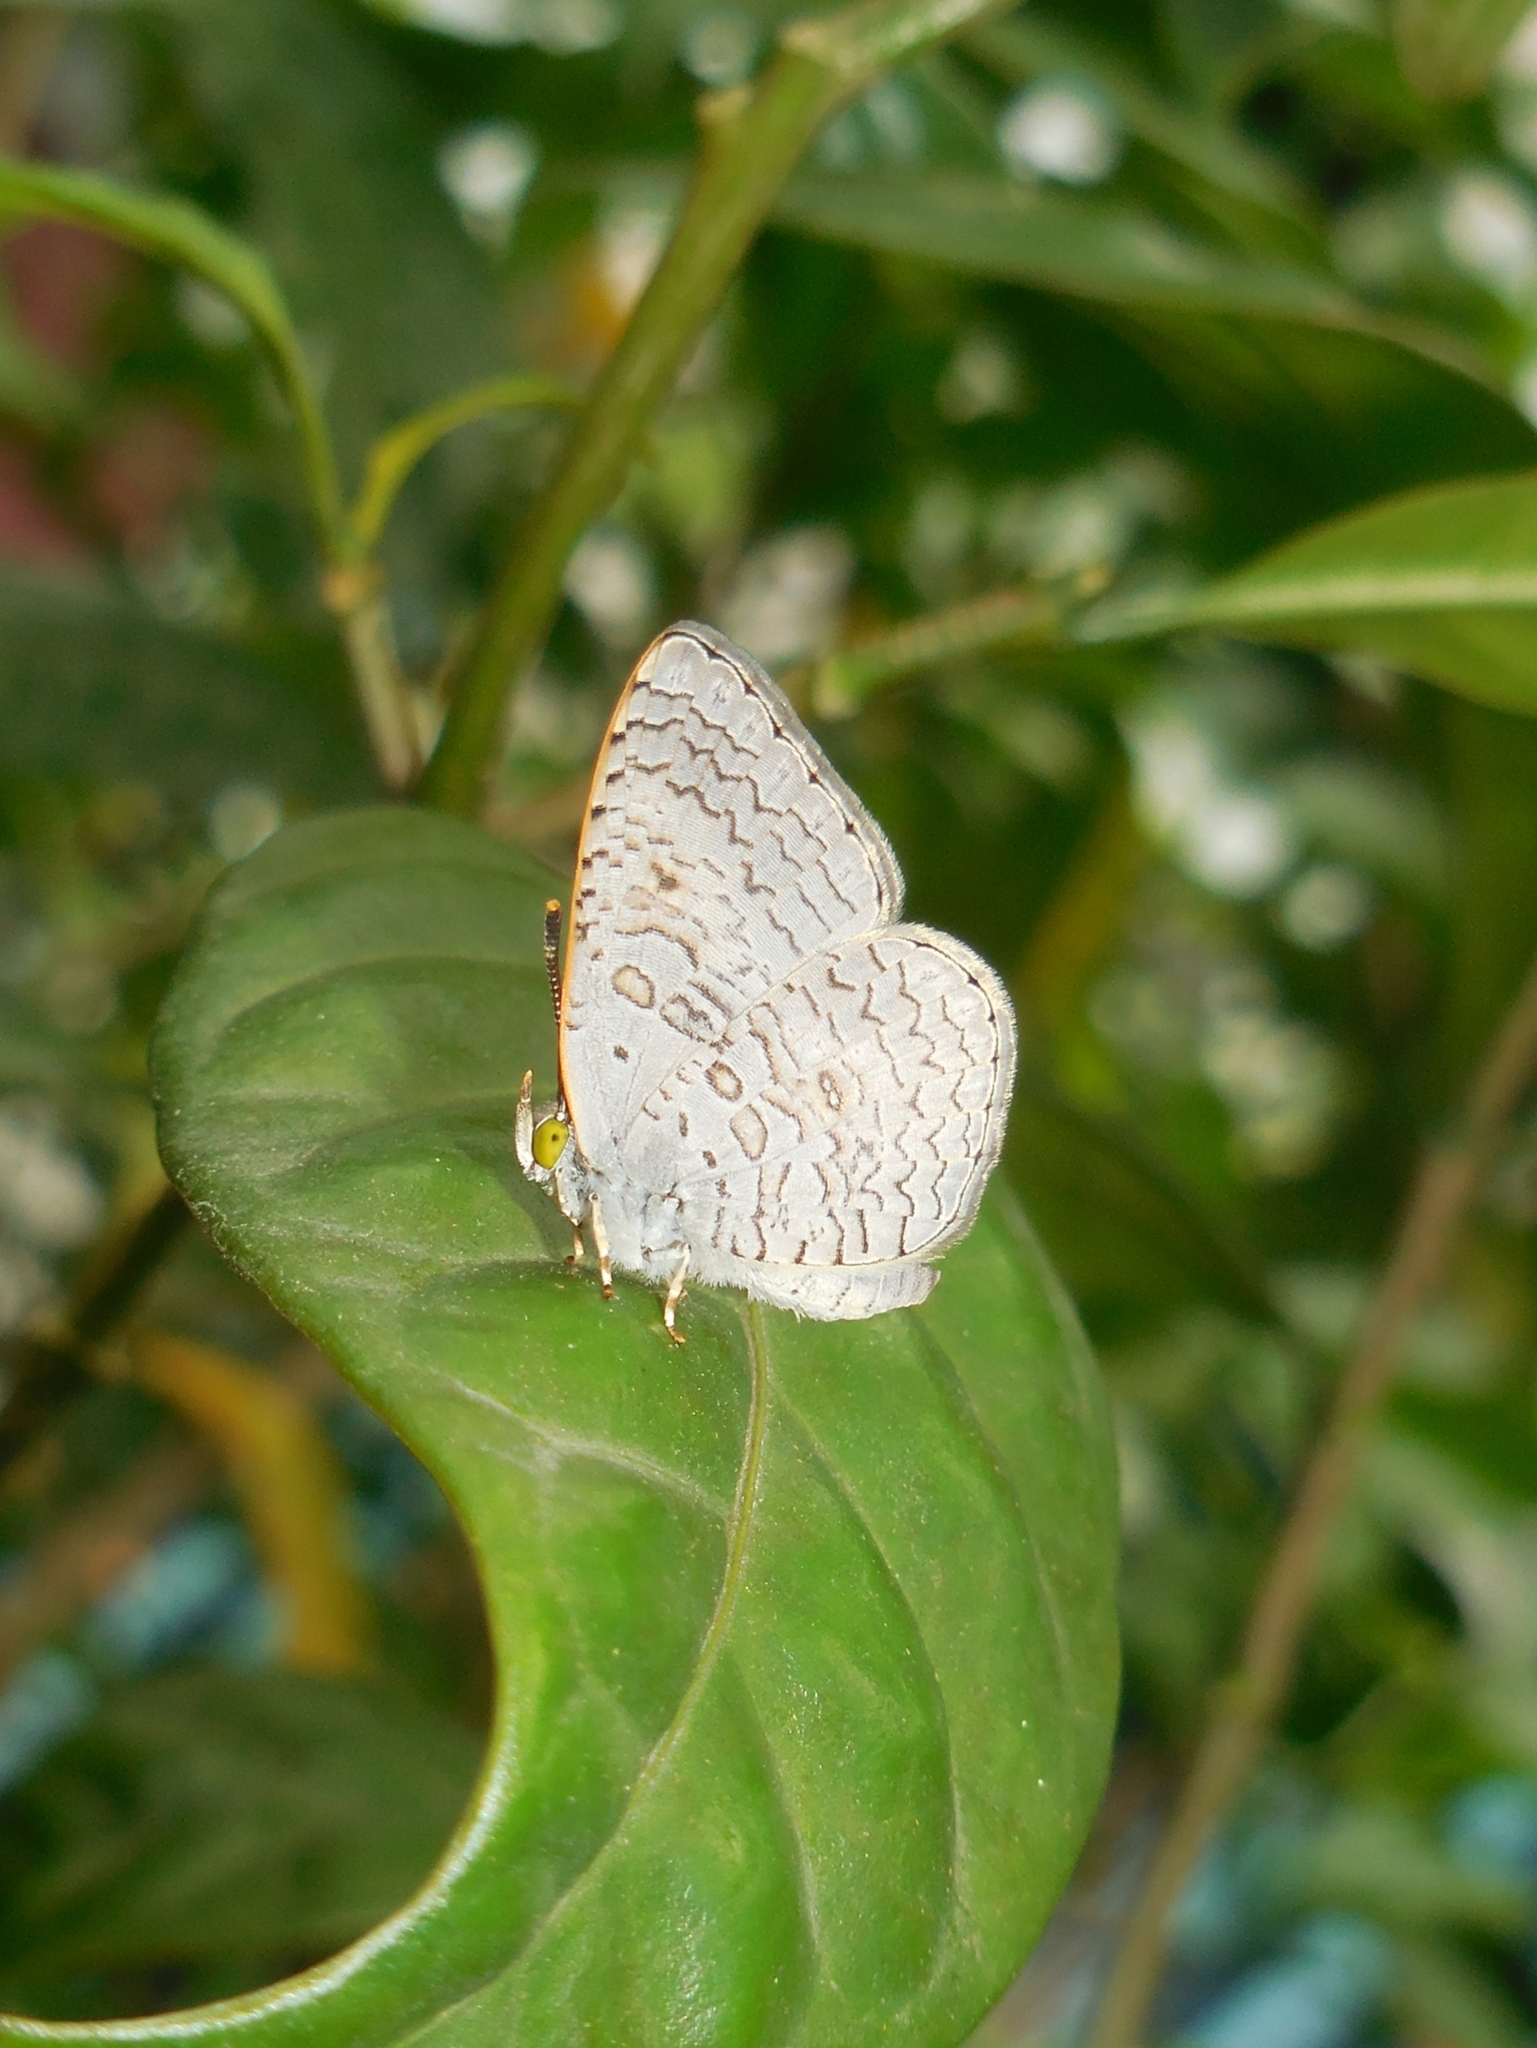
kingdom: Animalia
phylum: Arthropoda
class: Insecta
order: Lepidoptera
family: Lycaenidae
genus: Spalgis
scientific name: Spalgis epius
